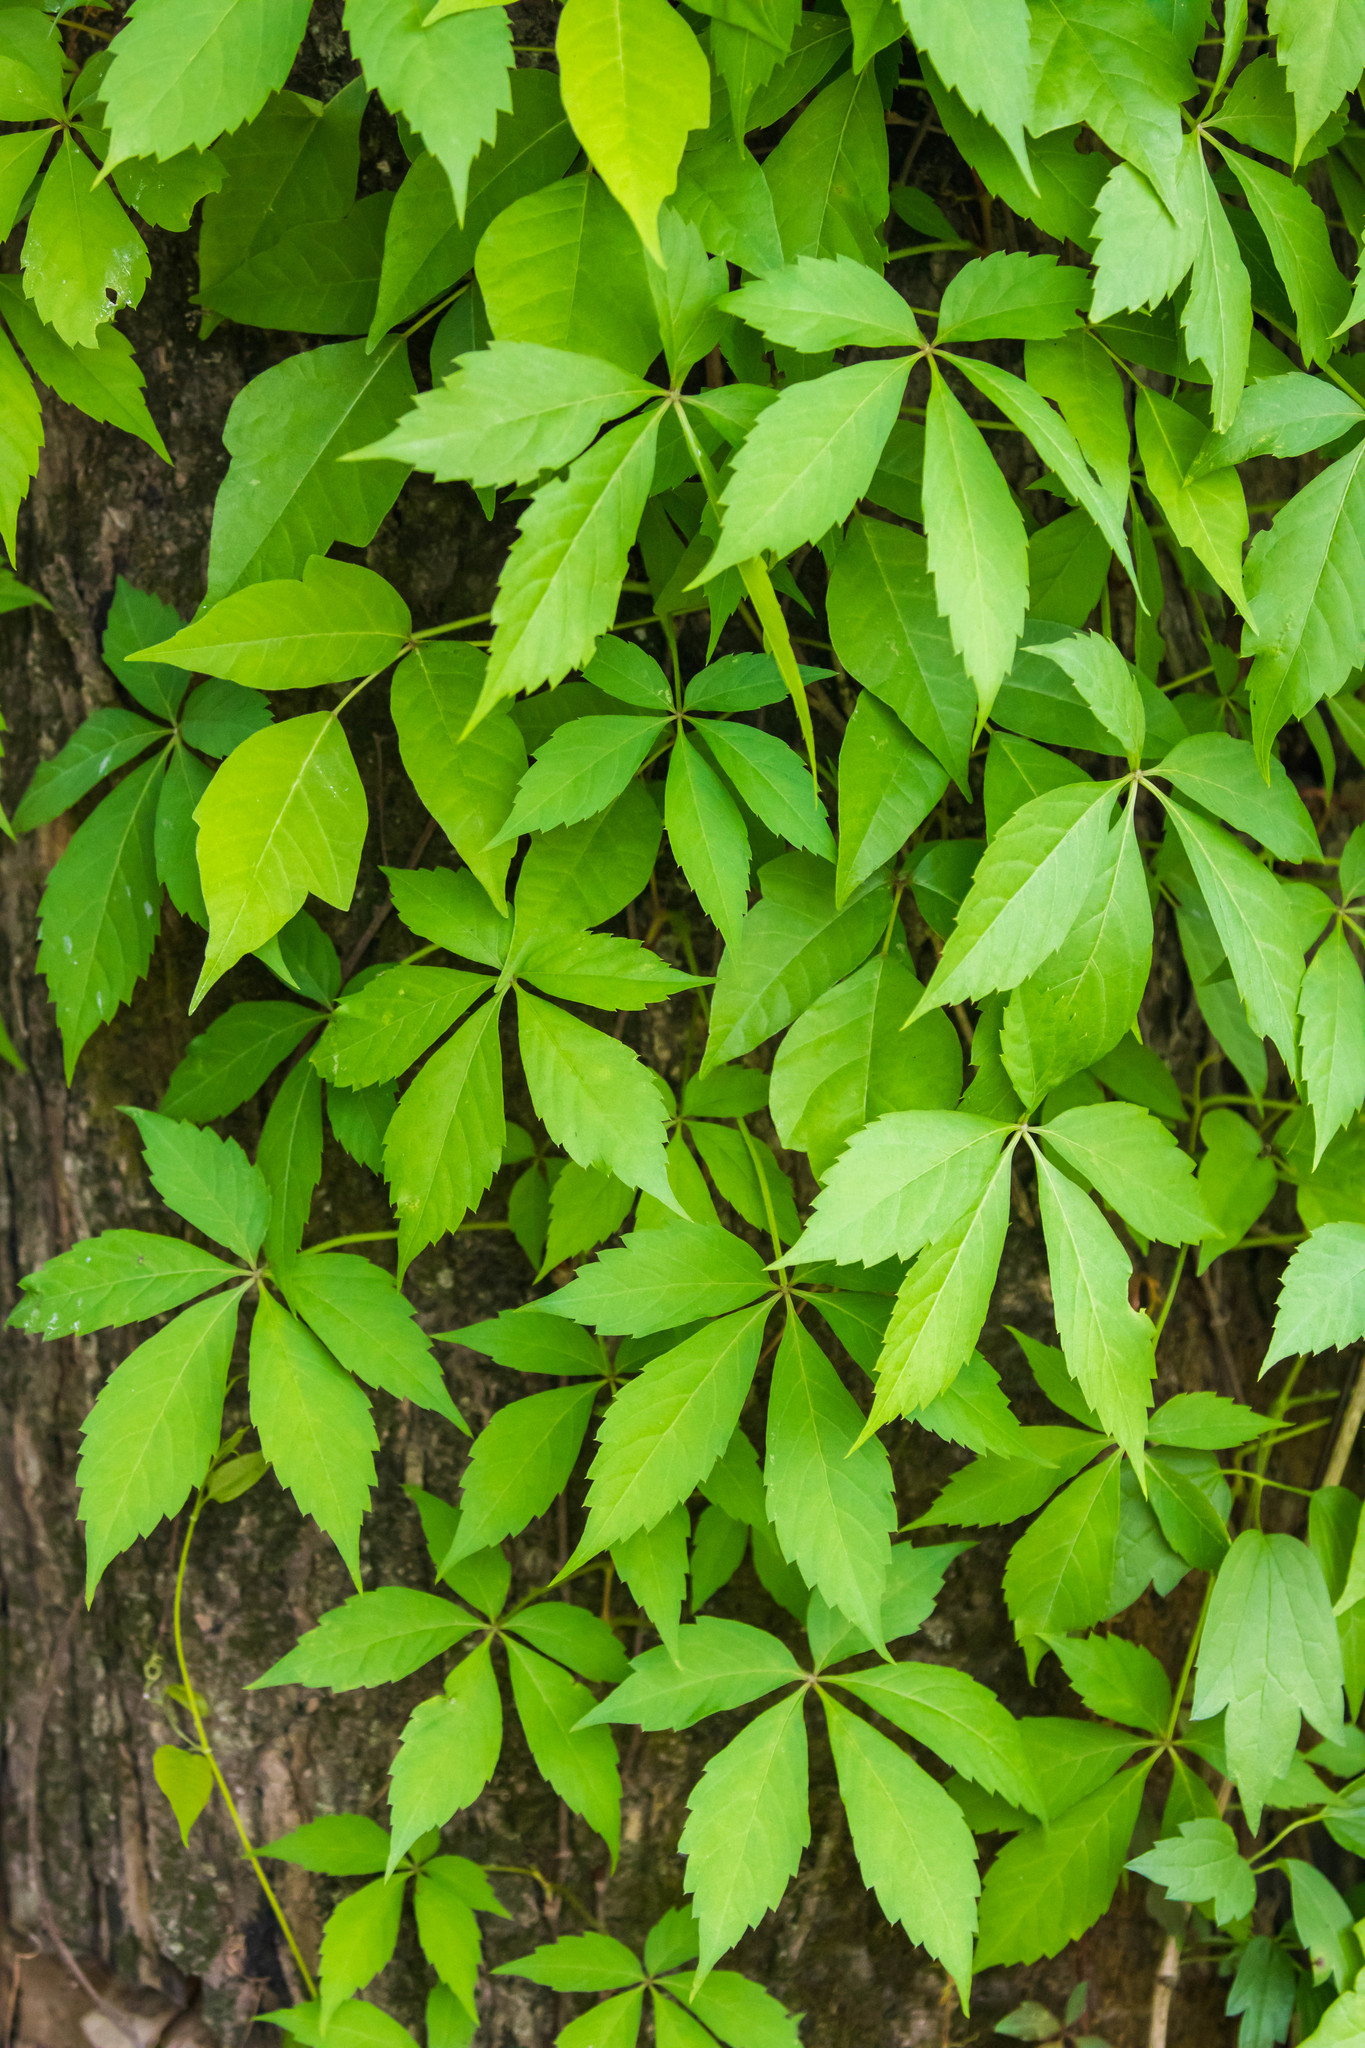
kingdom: Plantae
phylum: Tracheophyta
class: Magnoliopsida
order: Vitales
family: Vitaceae
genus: Parthenocissus
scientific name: Parthenocissus quinquefolia
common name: Virginia-creeper
